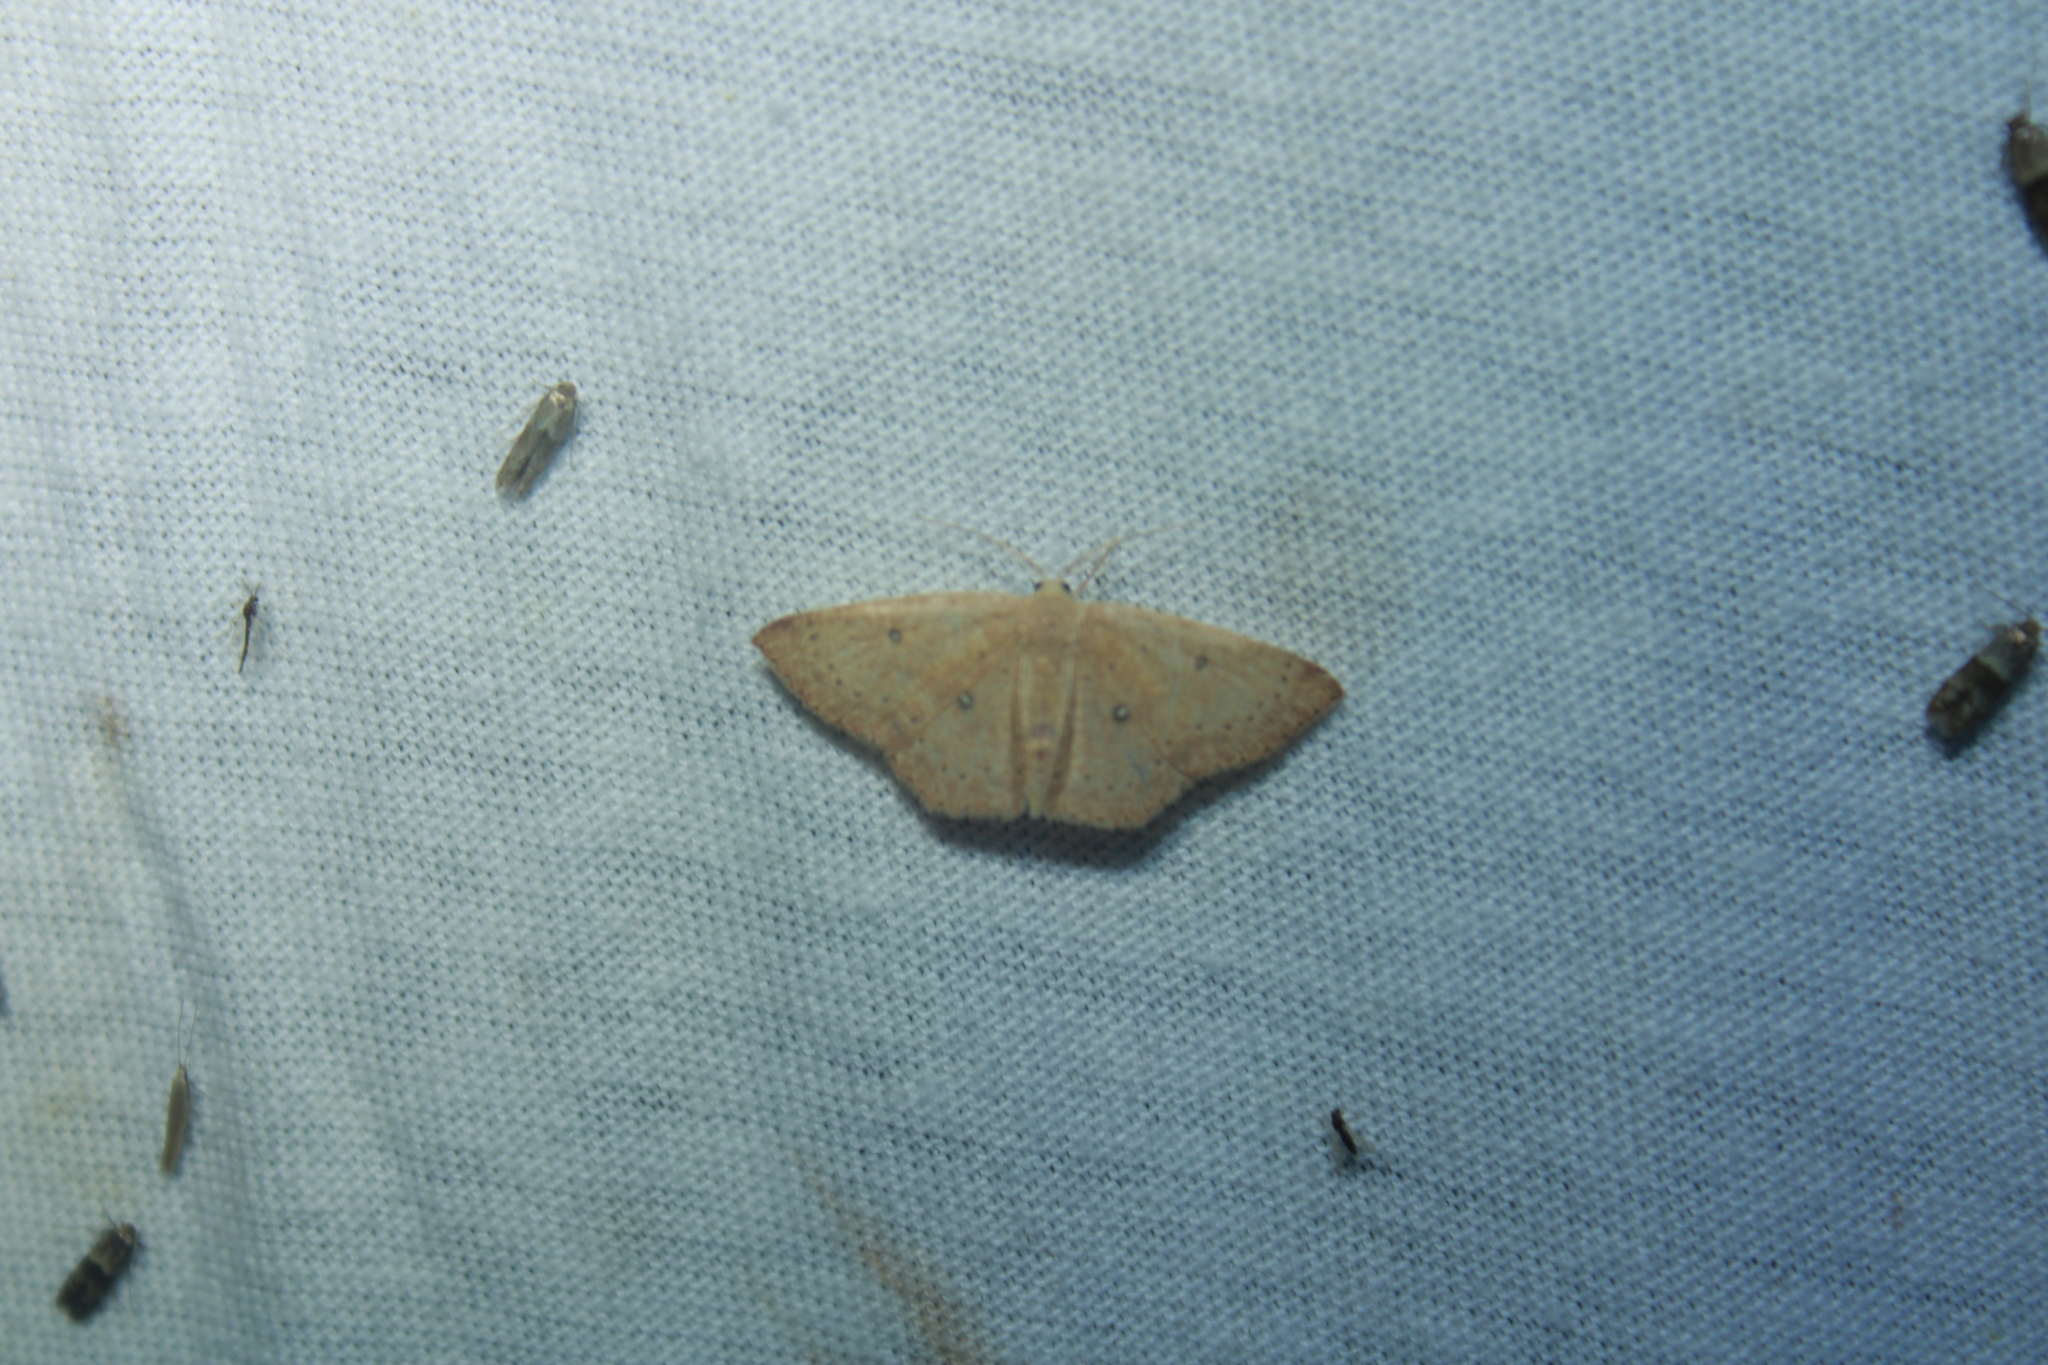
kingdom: Animalia
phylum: Arthropoda
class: Insecta
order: Lepidoptera
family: Geometridae
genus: Cyclophora
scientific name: Cyclophora packardi
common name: Packard's wave
